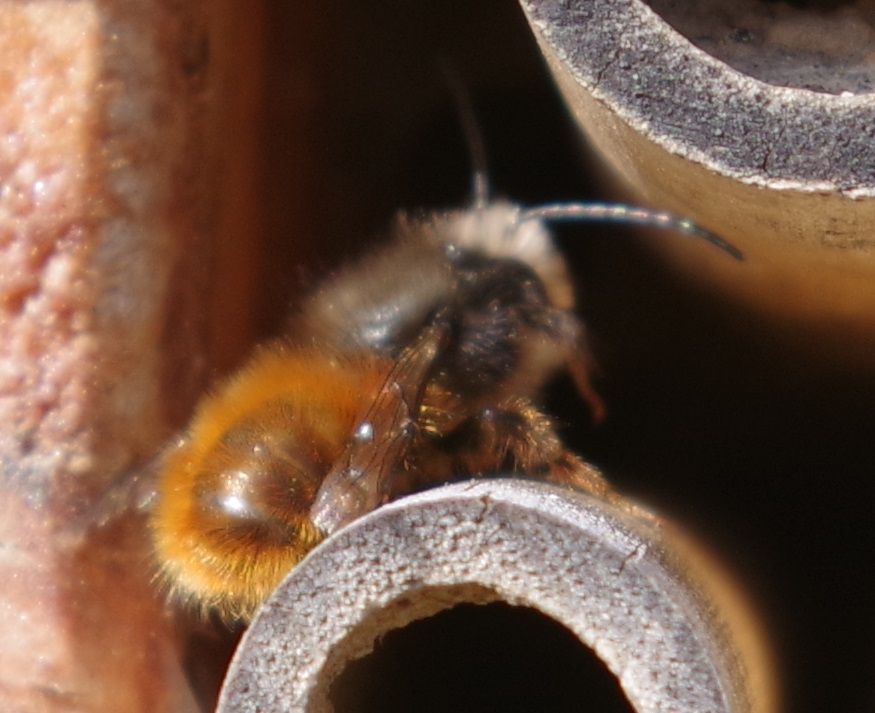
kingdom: Animalia
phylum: Arthropoda
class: Insecta
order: Hymenoptera
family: Megachilidae
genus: Osmia
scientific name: Osmia cornuta
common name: Mason bee
